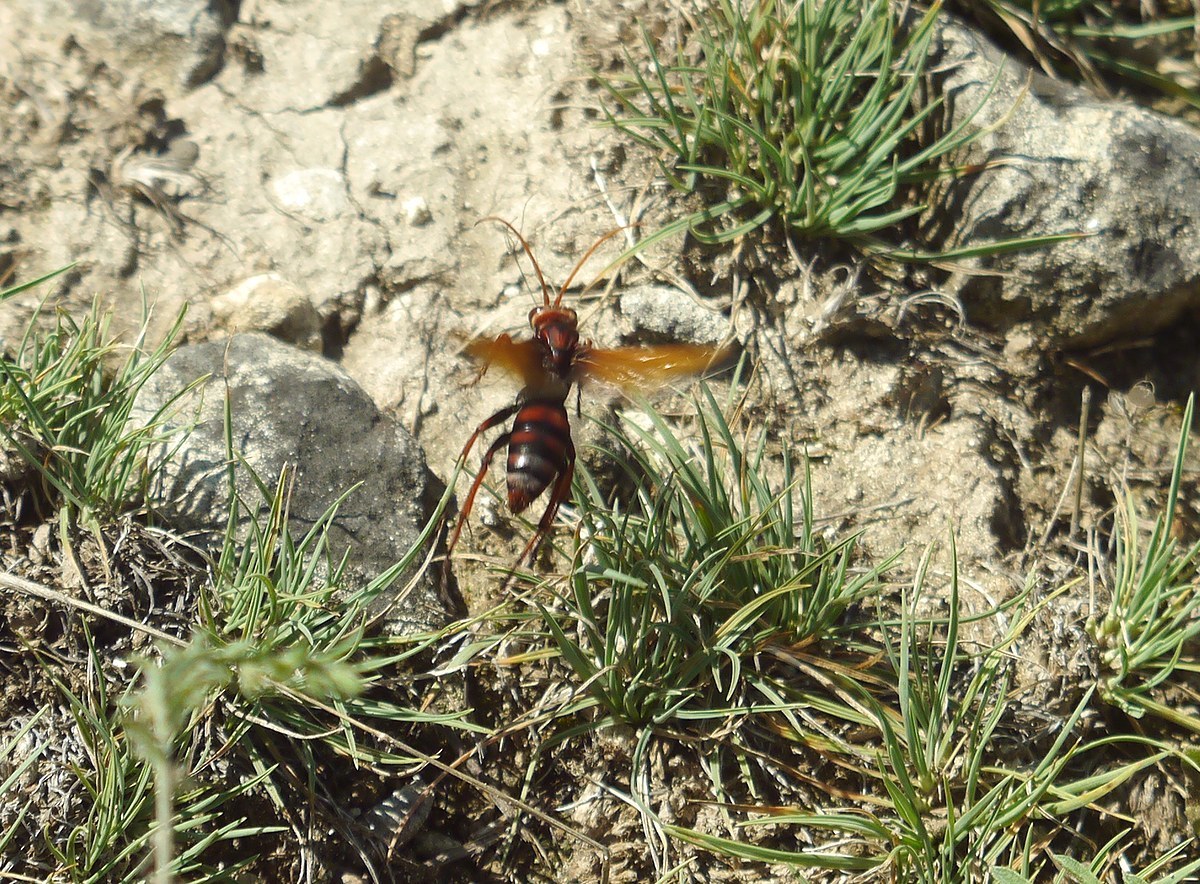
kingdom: Animalia
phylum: Arthropoda
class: Insecta
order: Hymenoptera
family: Pompilidae
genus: Cryptocheilus
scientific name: Cryptocheilus rubellus
